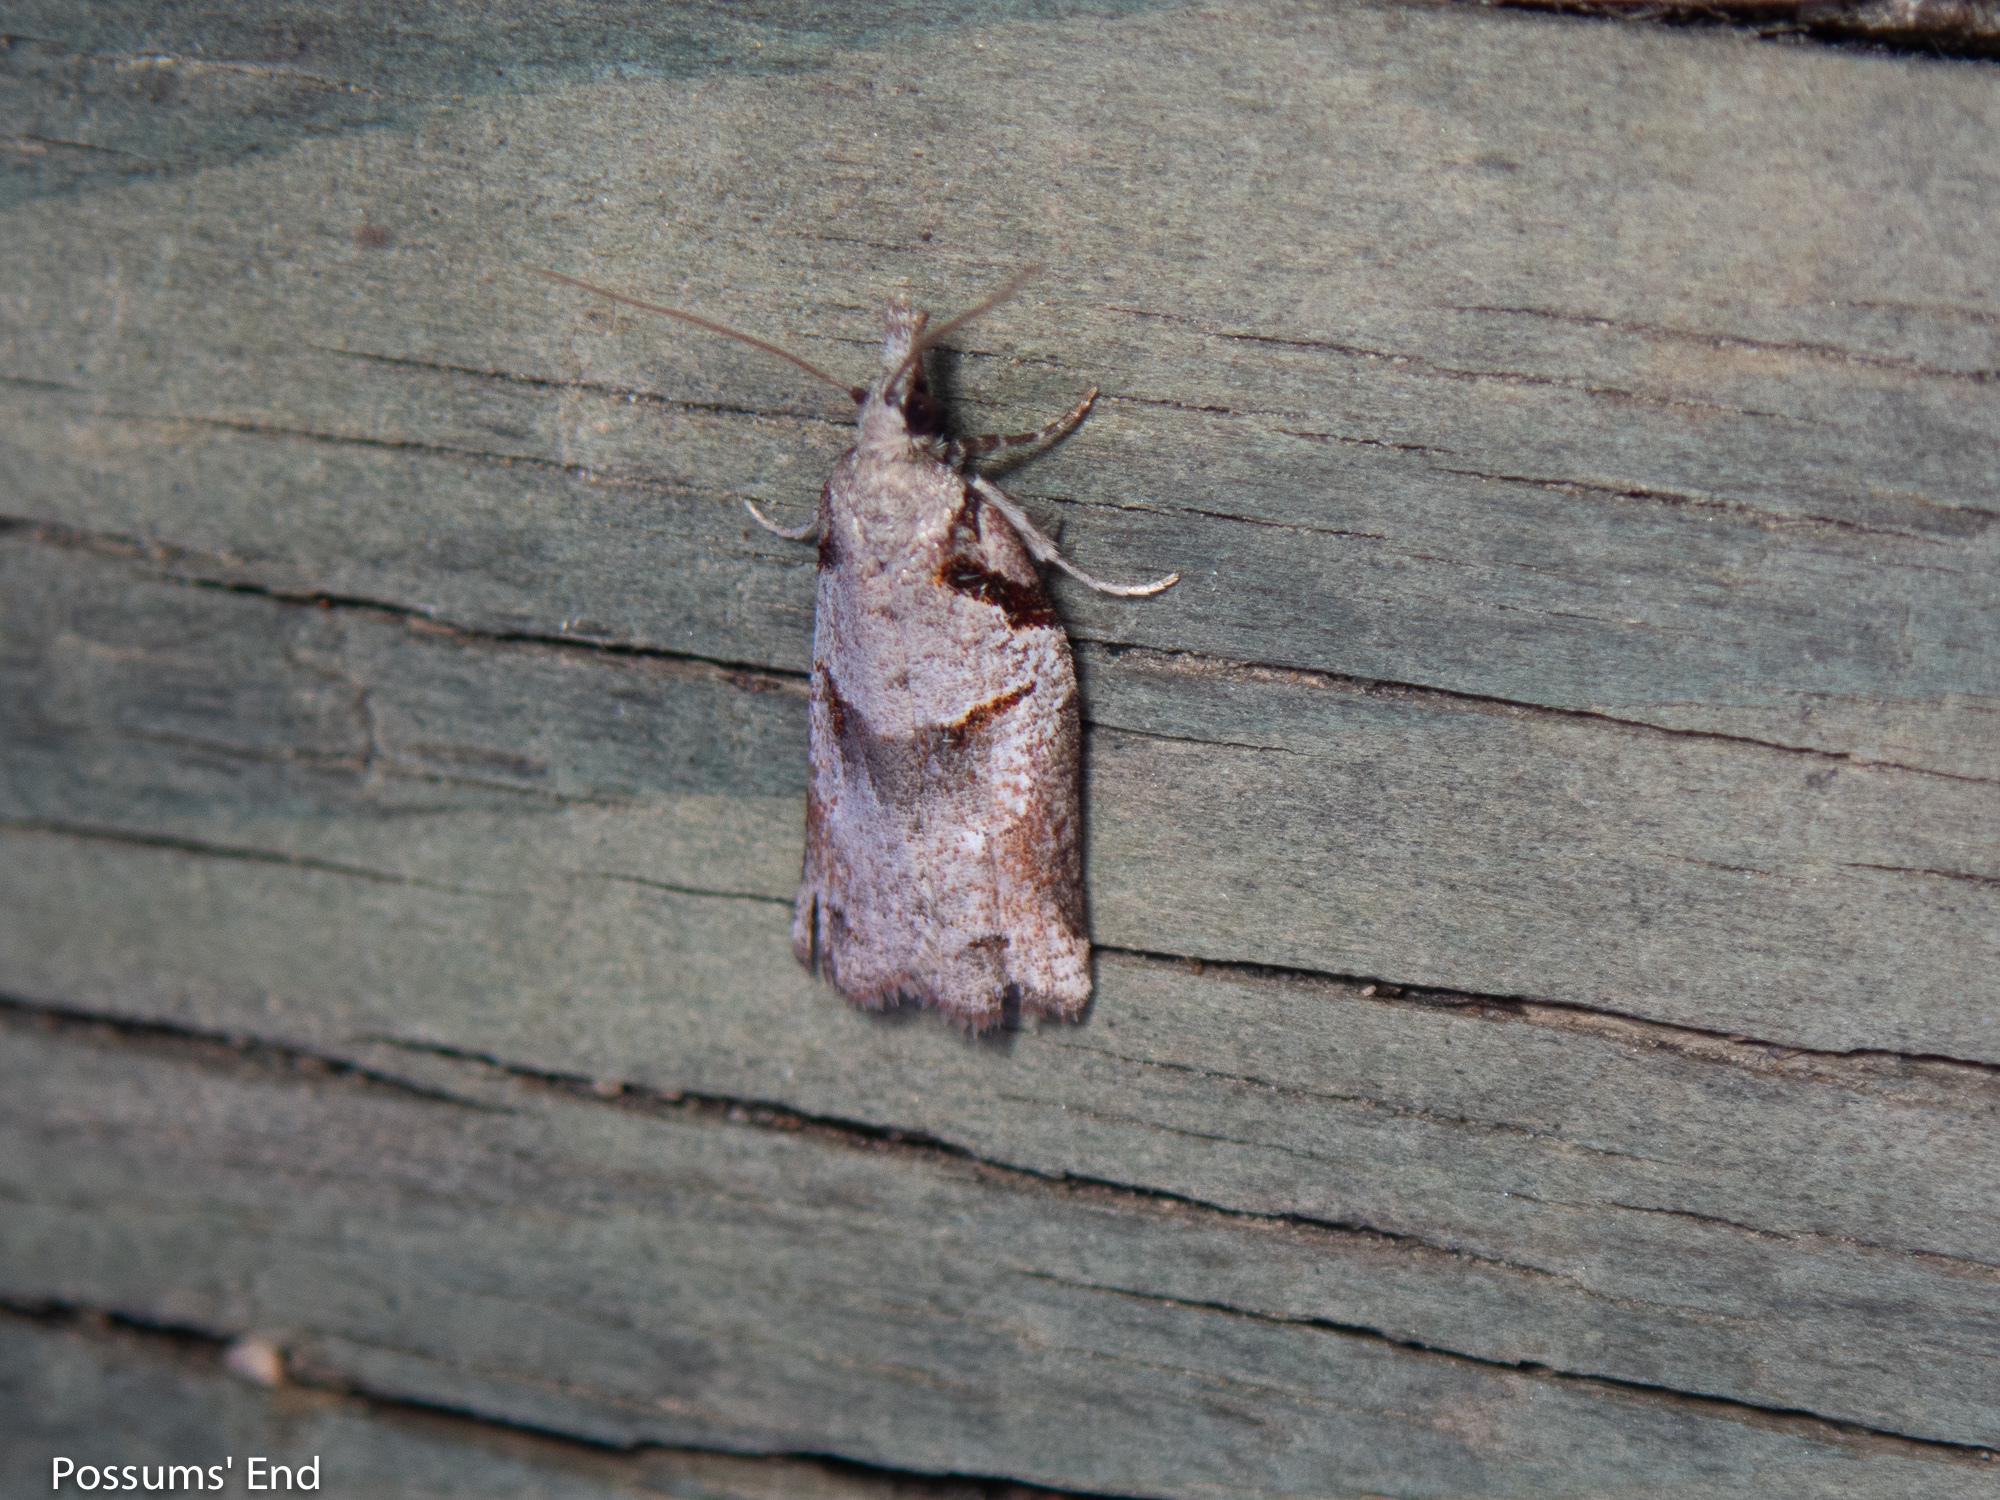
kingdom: Animalia
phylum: Arthropoda
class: Insecta
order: Lepidoptera
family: Tortricidae
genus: Harmologa
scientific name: Harmologa amplexana
